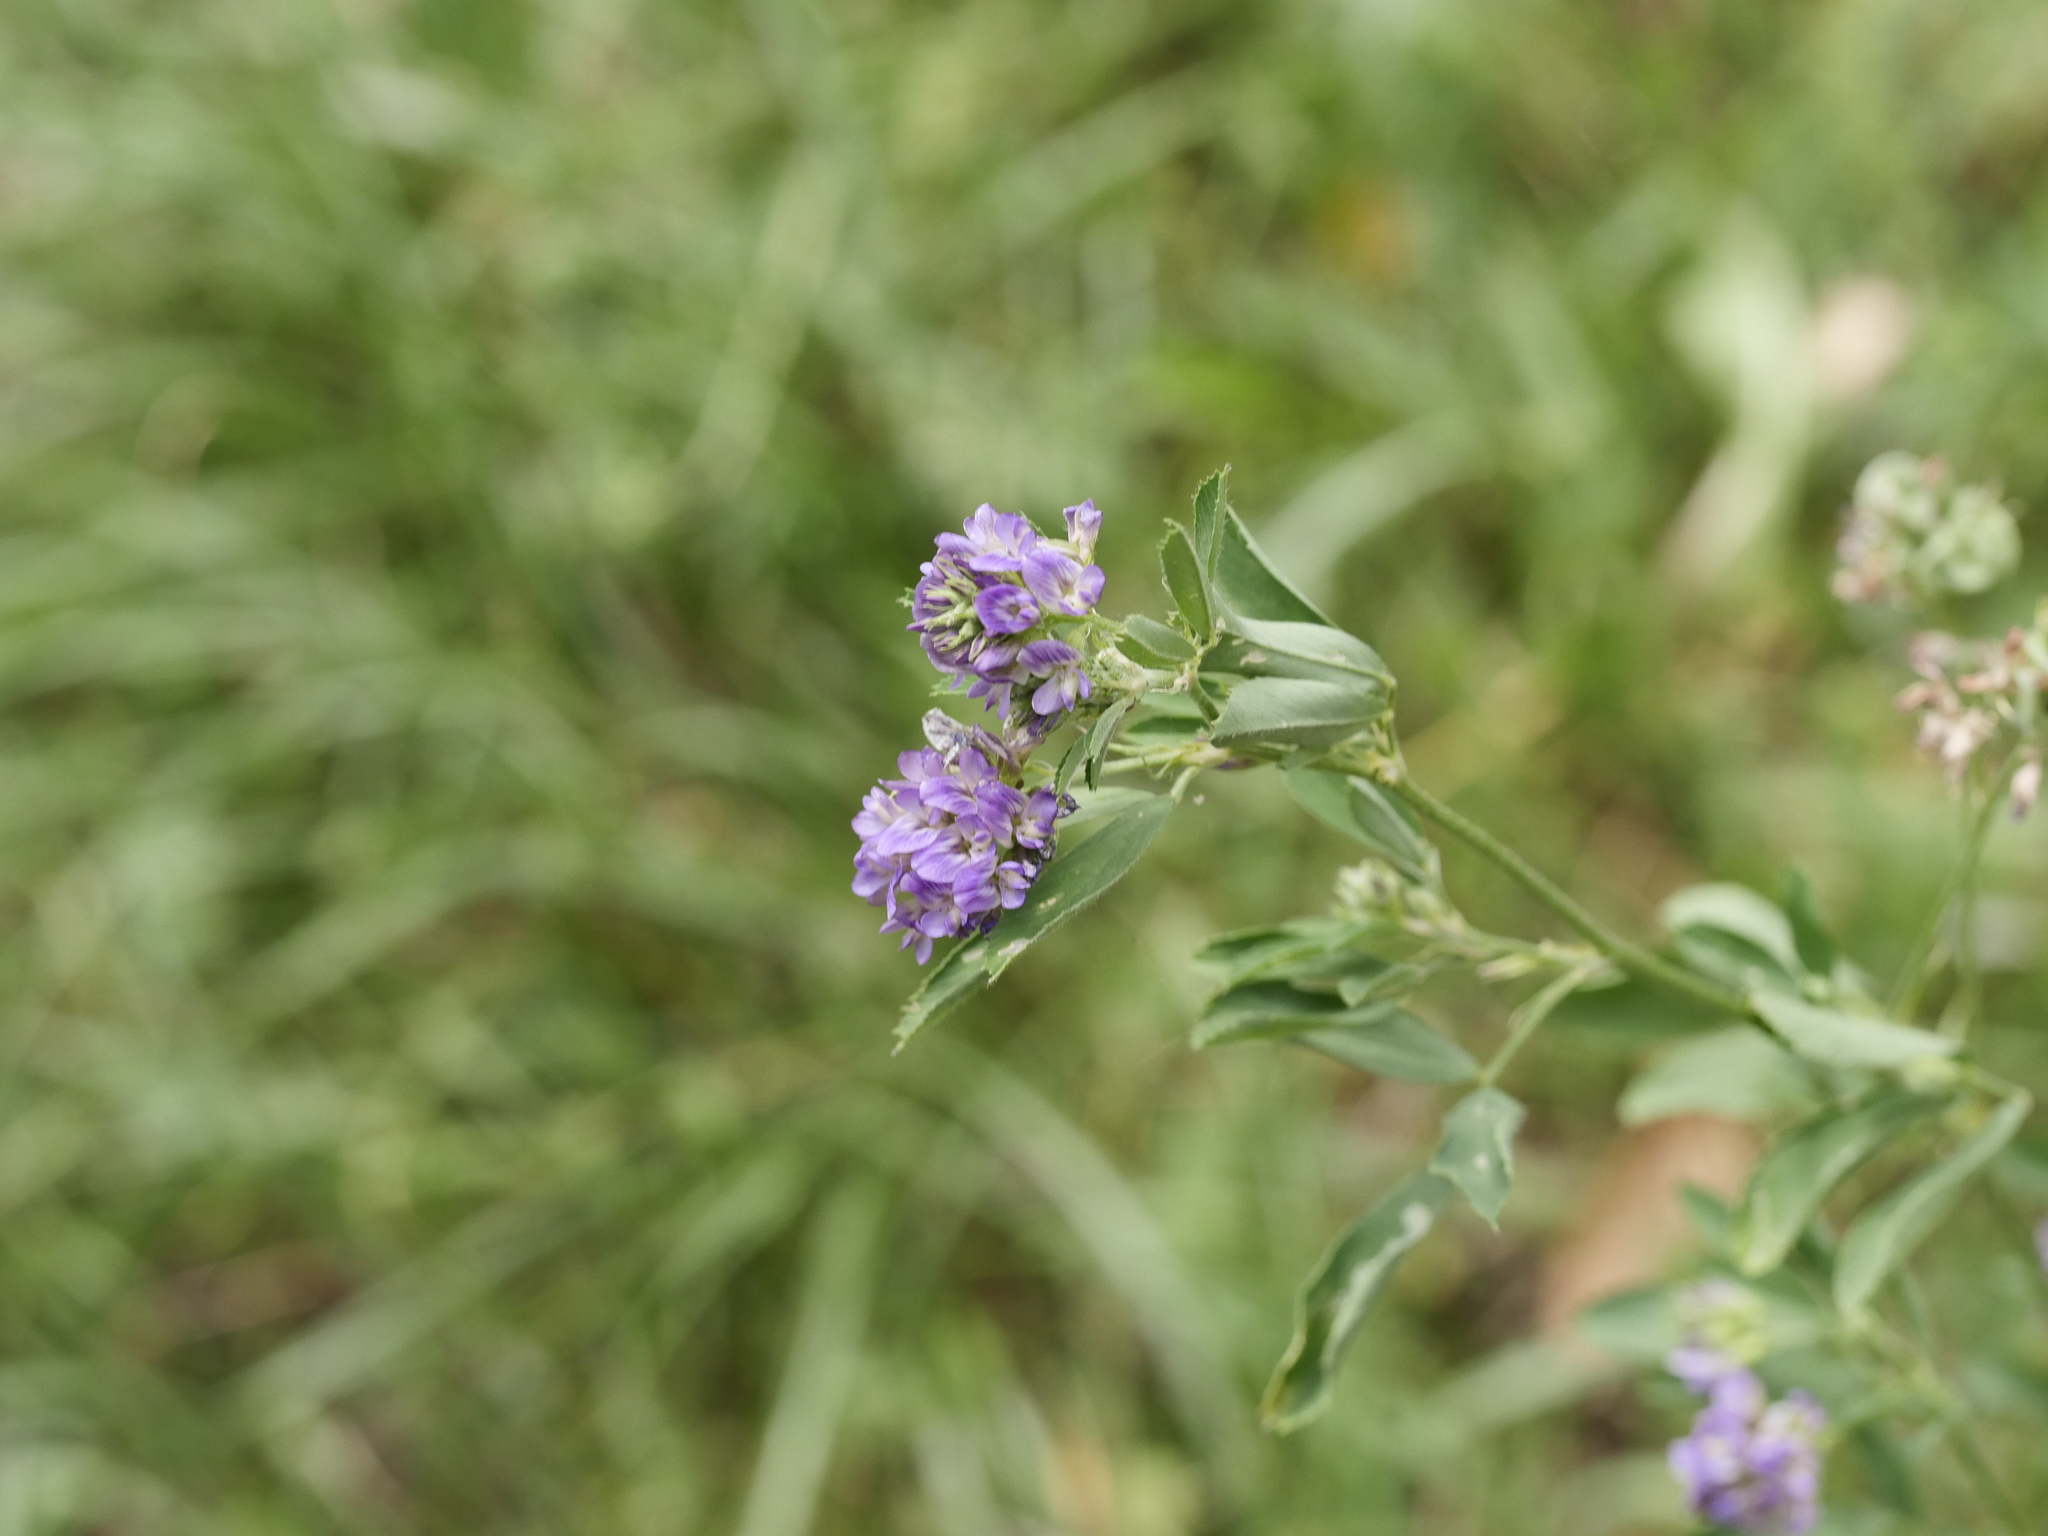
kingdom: Plantae
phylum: Tracheophyta
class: Magnoliopsida
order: Fabales
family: Fabaceae
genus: Medicago
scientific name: Medicago sativa
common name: Alfalfa
